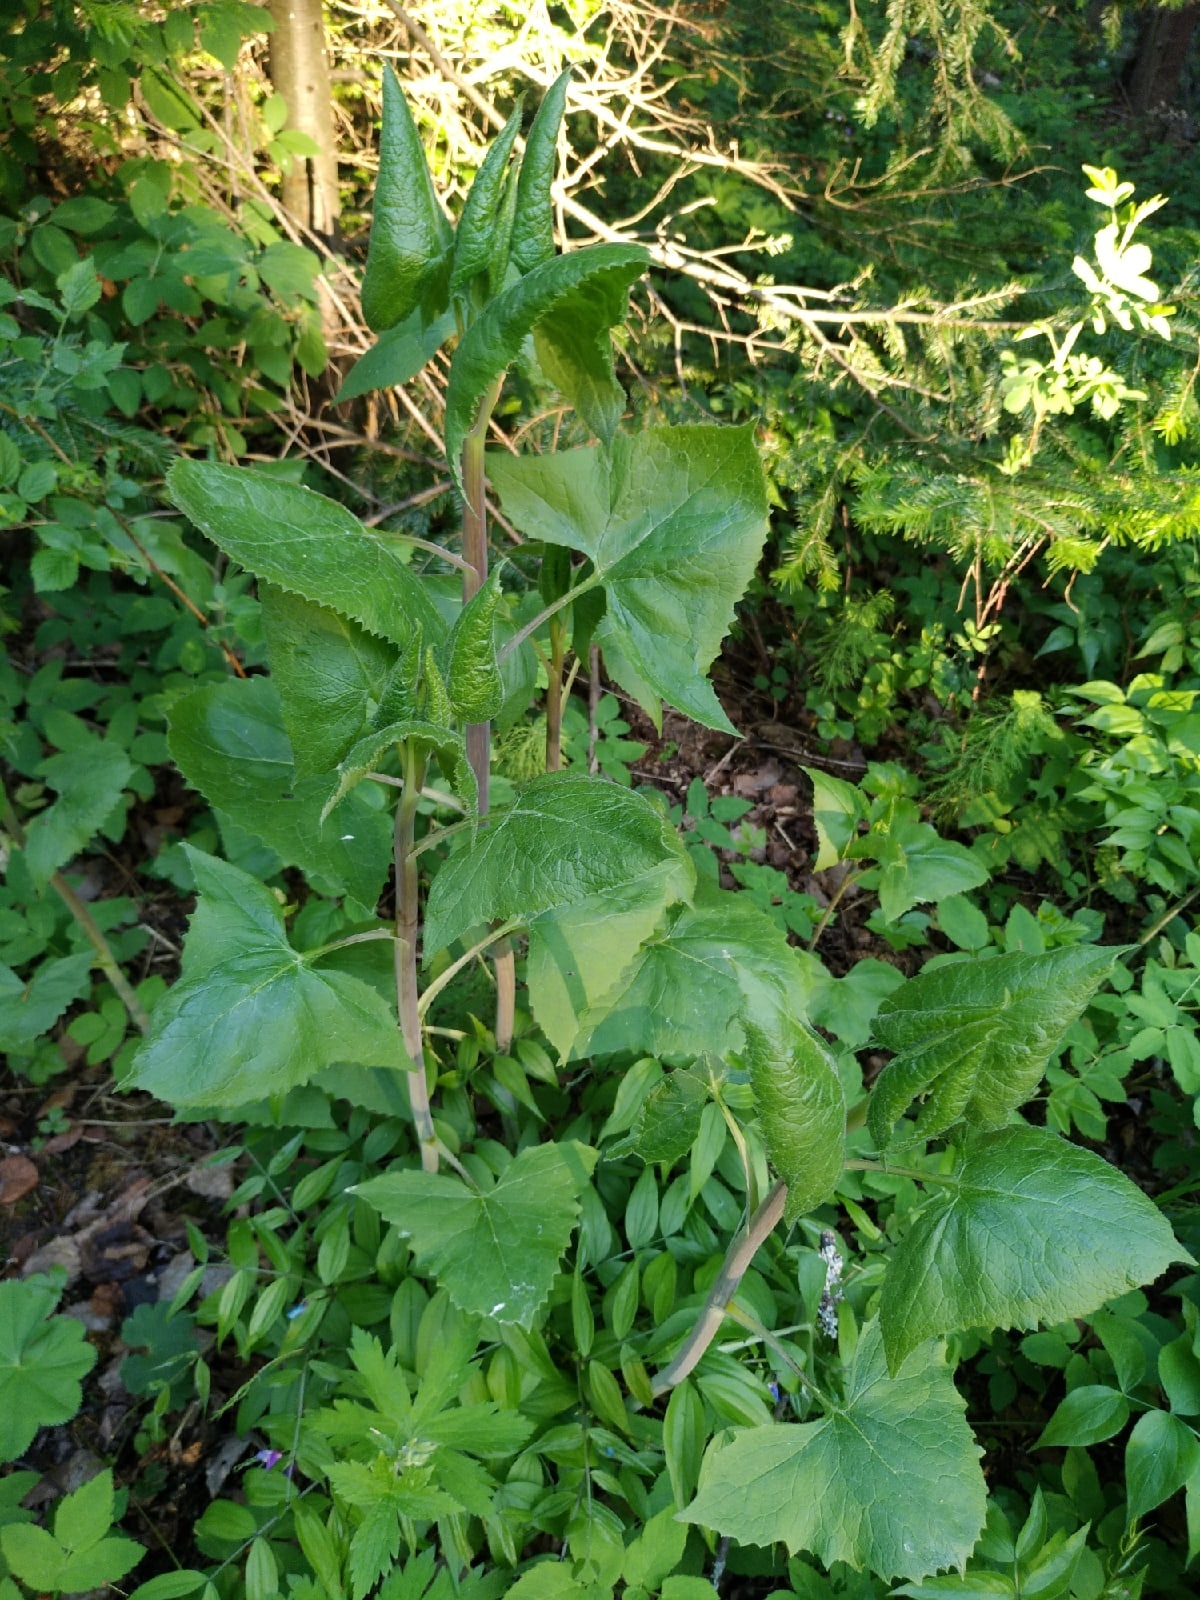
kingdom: Plantae
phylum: Tracheophyta
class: Magnoliopsida
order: Asterales
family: Asteraceae
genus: Parasenecio
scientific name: Parasenecio hastatus
